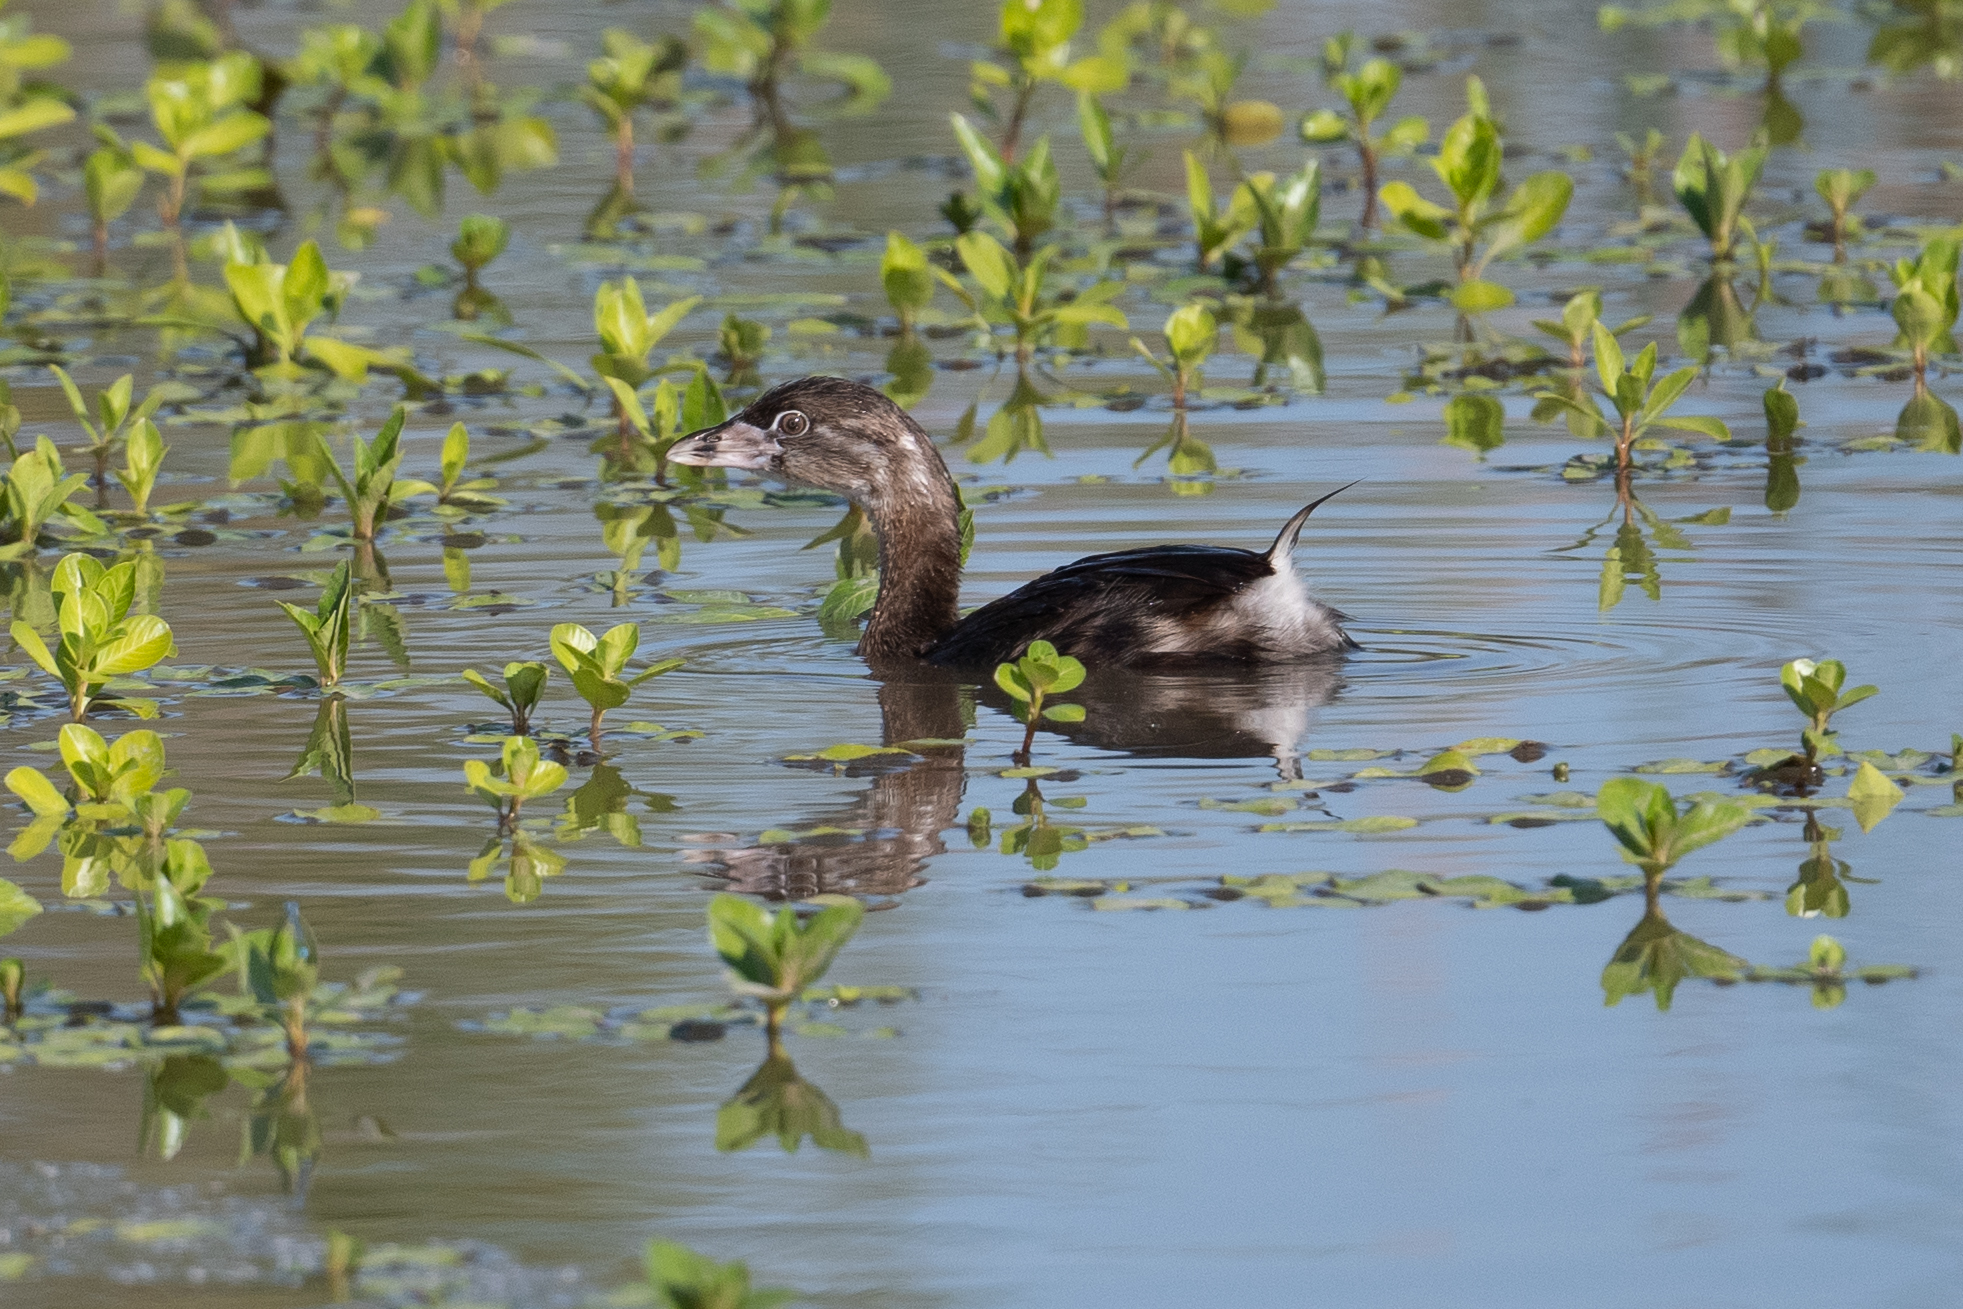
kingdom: Animalia
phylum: Chordata
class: Aves
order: Podicipediformes
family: Podicipedidae
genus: Podilymbus
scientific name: Podilymbus podiceps
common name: Pied-billed grebe
